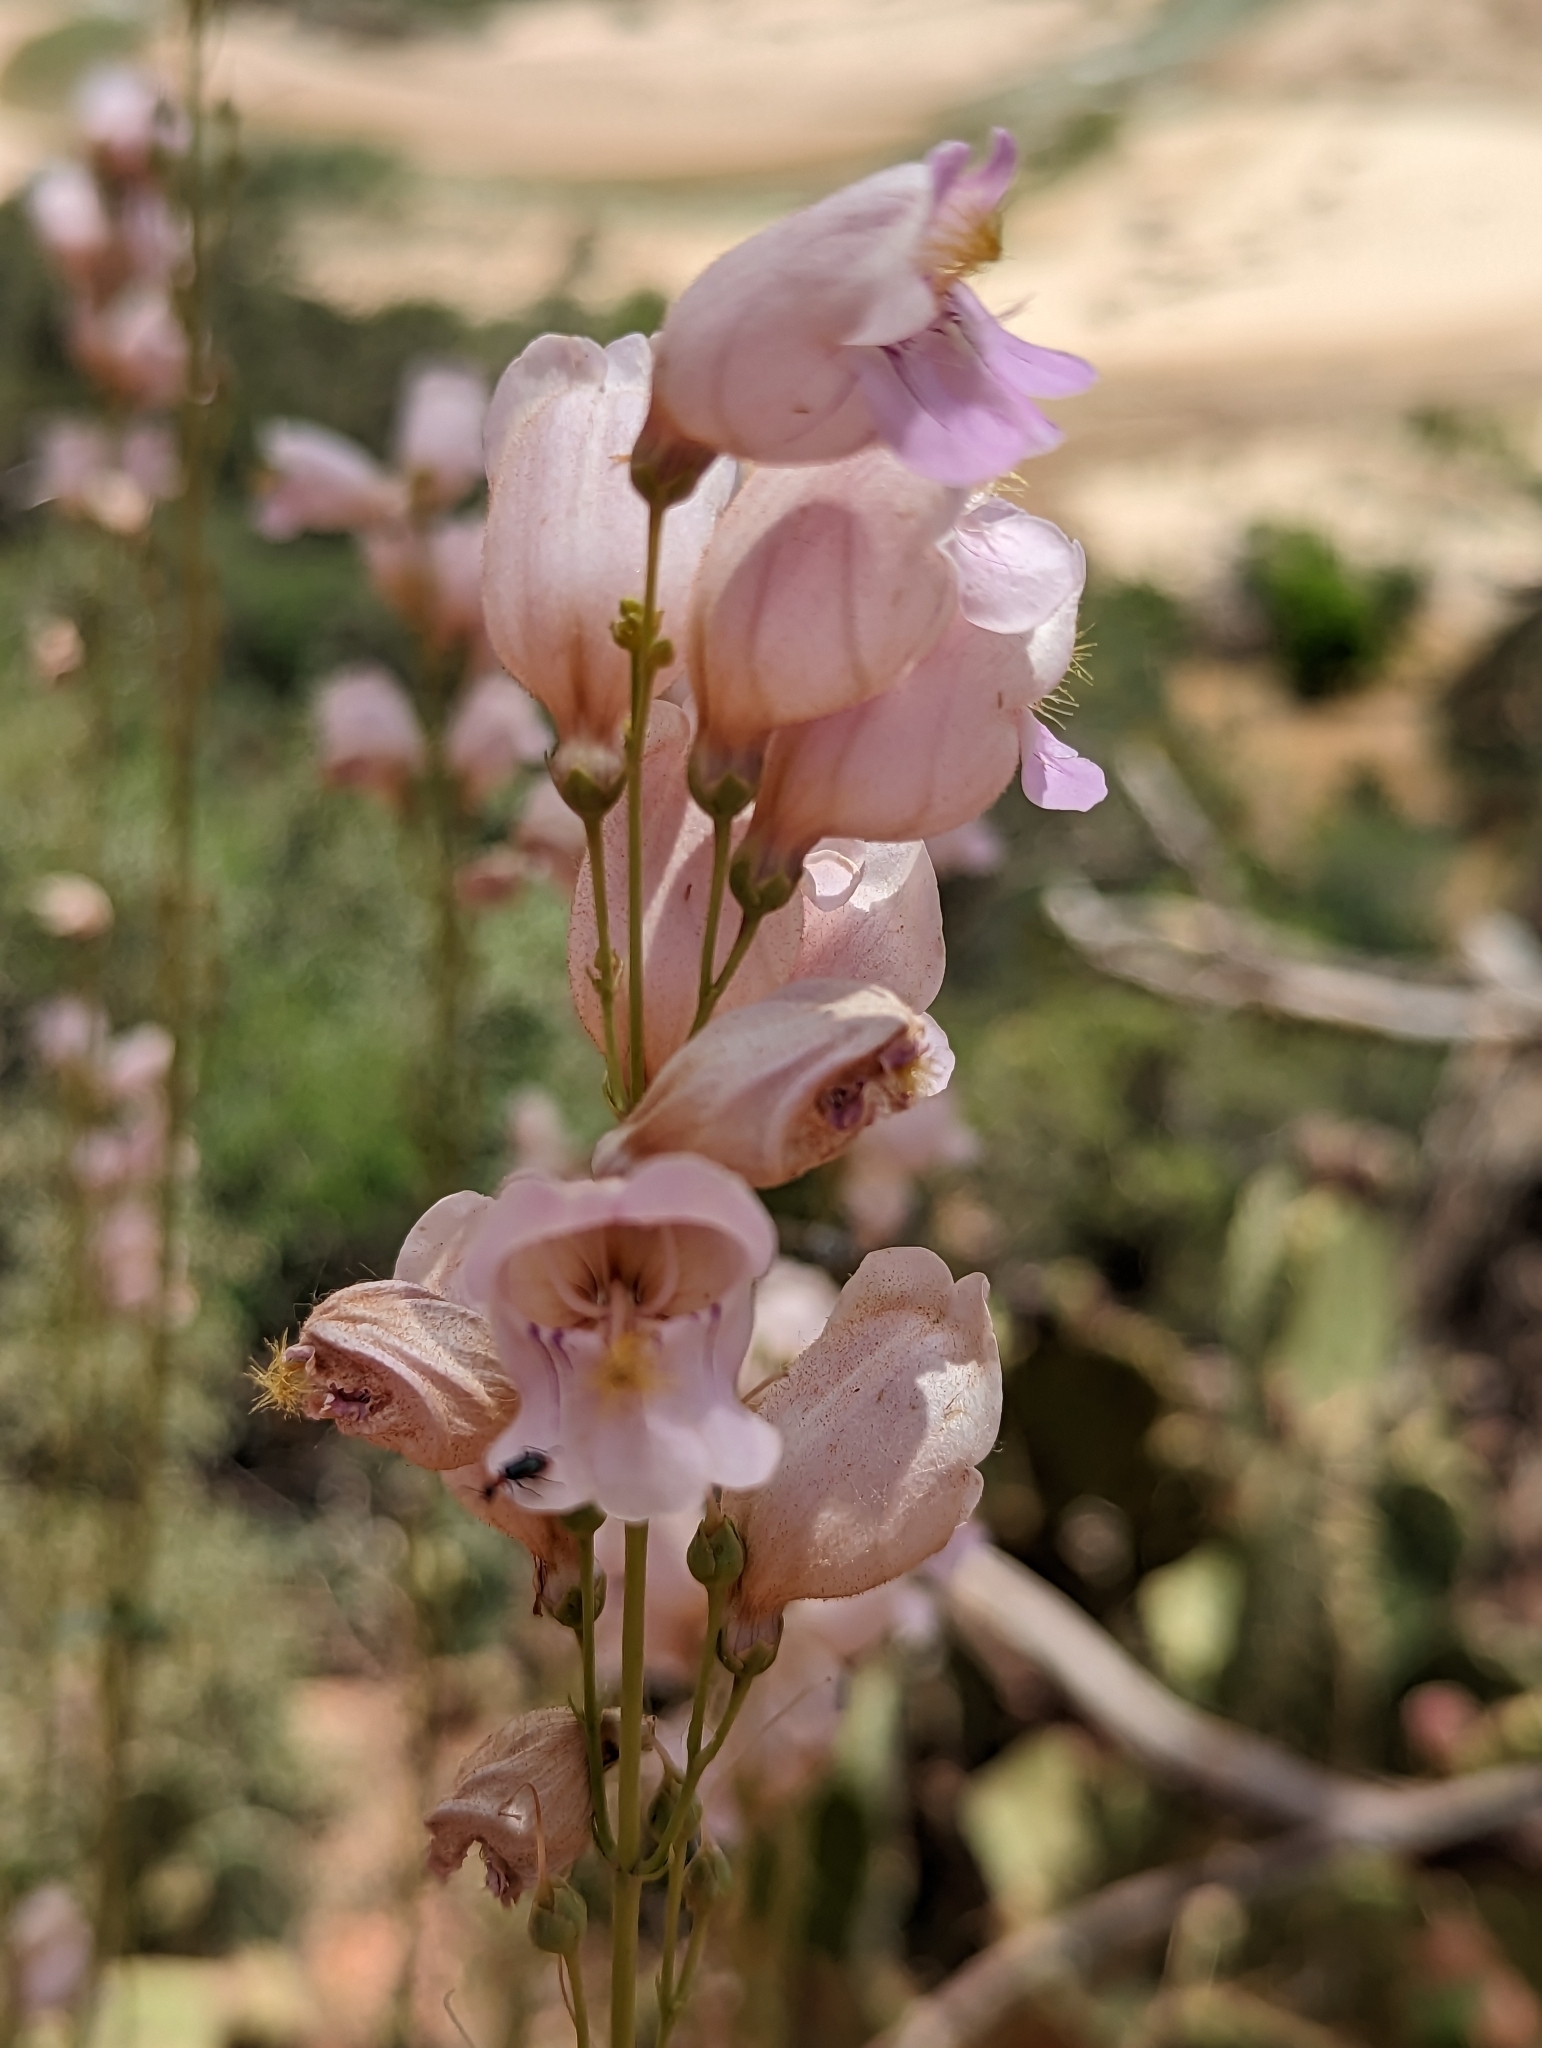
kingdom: Plantae
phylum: Tracheophyta
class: Magnoliopsida
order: Lamiales
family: Plantaginaceae
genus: Penstemon
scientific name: Penstemon palmeri
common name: Palmer penstemon
